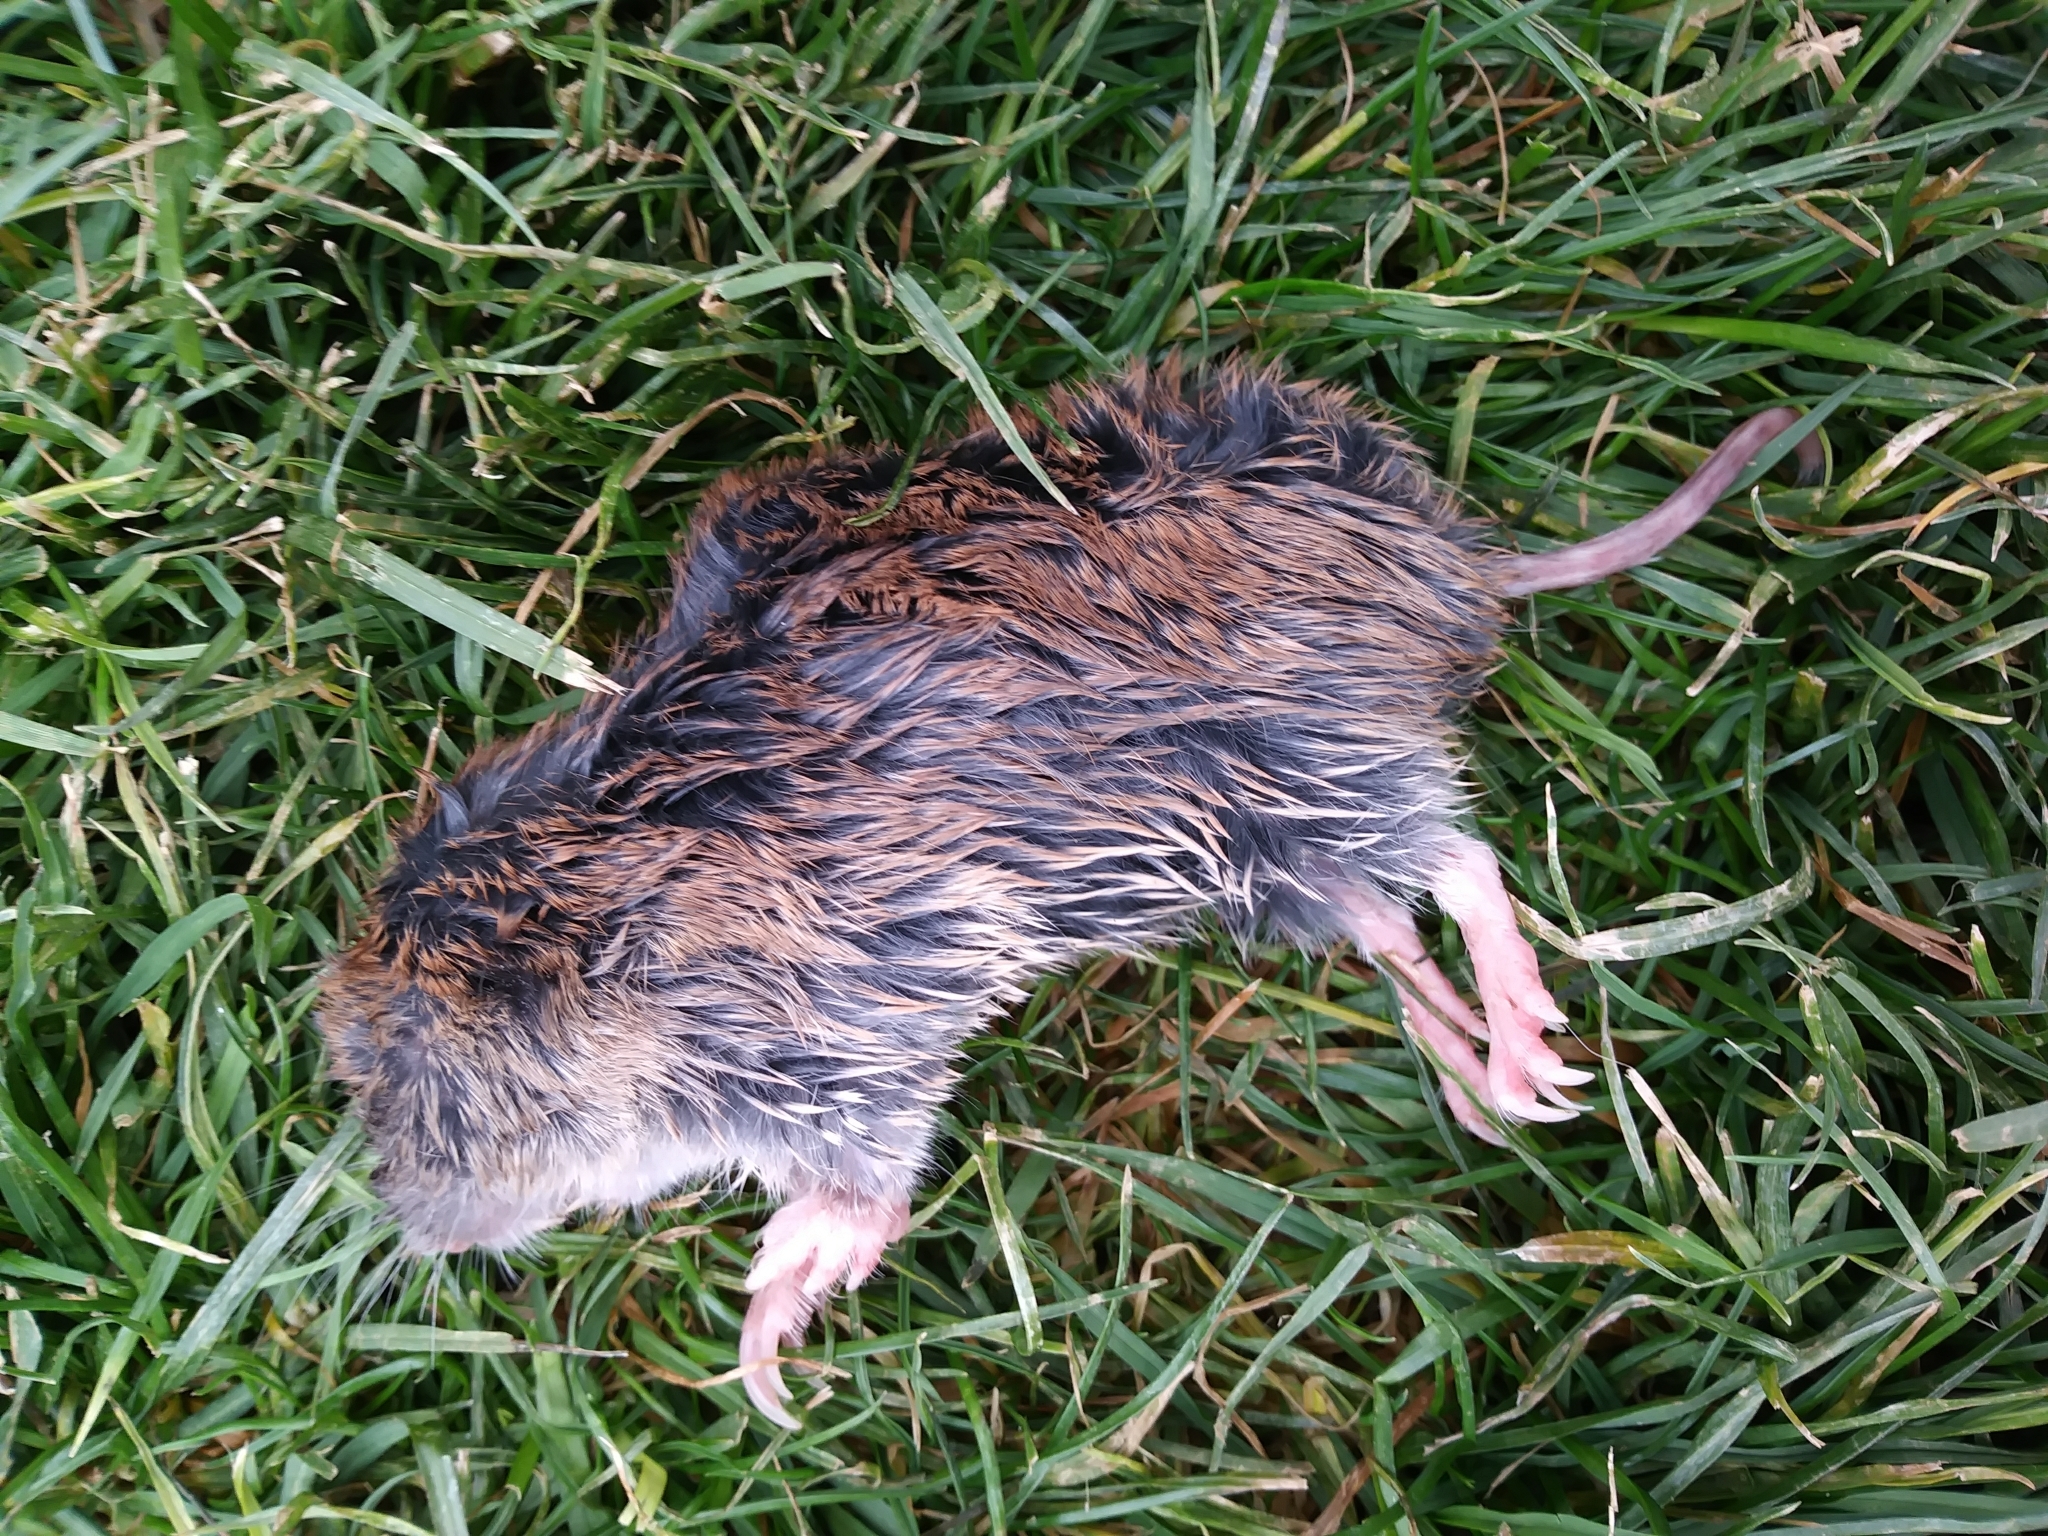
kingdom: Animalia
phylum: Chordata
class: Mammalia
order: Rodentia
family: Geomyidae
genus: Thomomys
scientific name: Thomomys talpoides
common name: Northern pocket gopher
